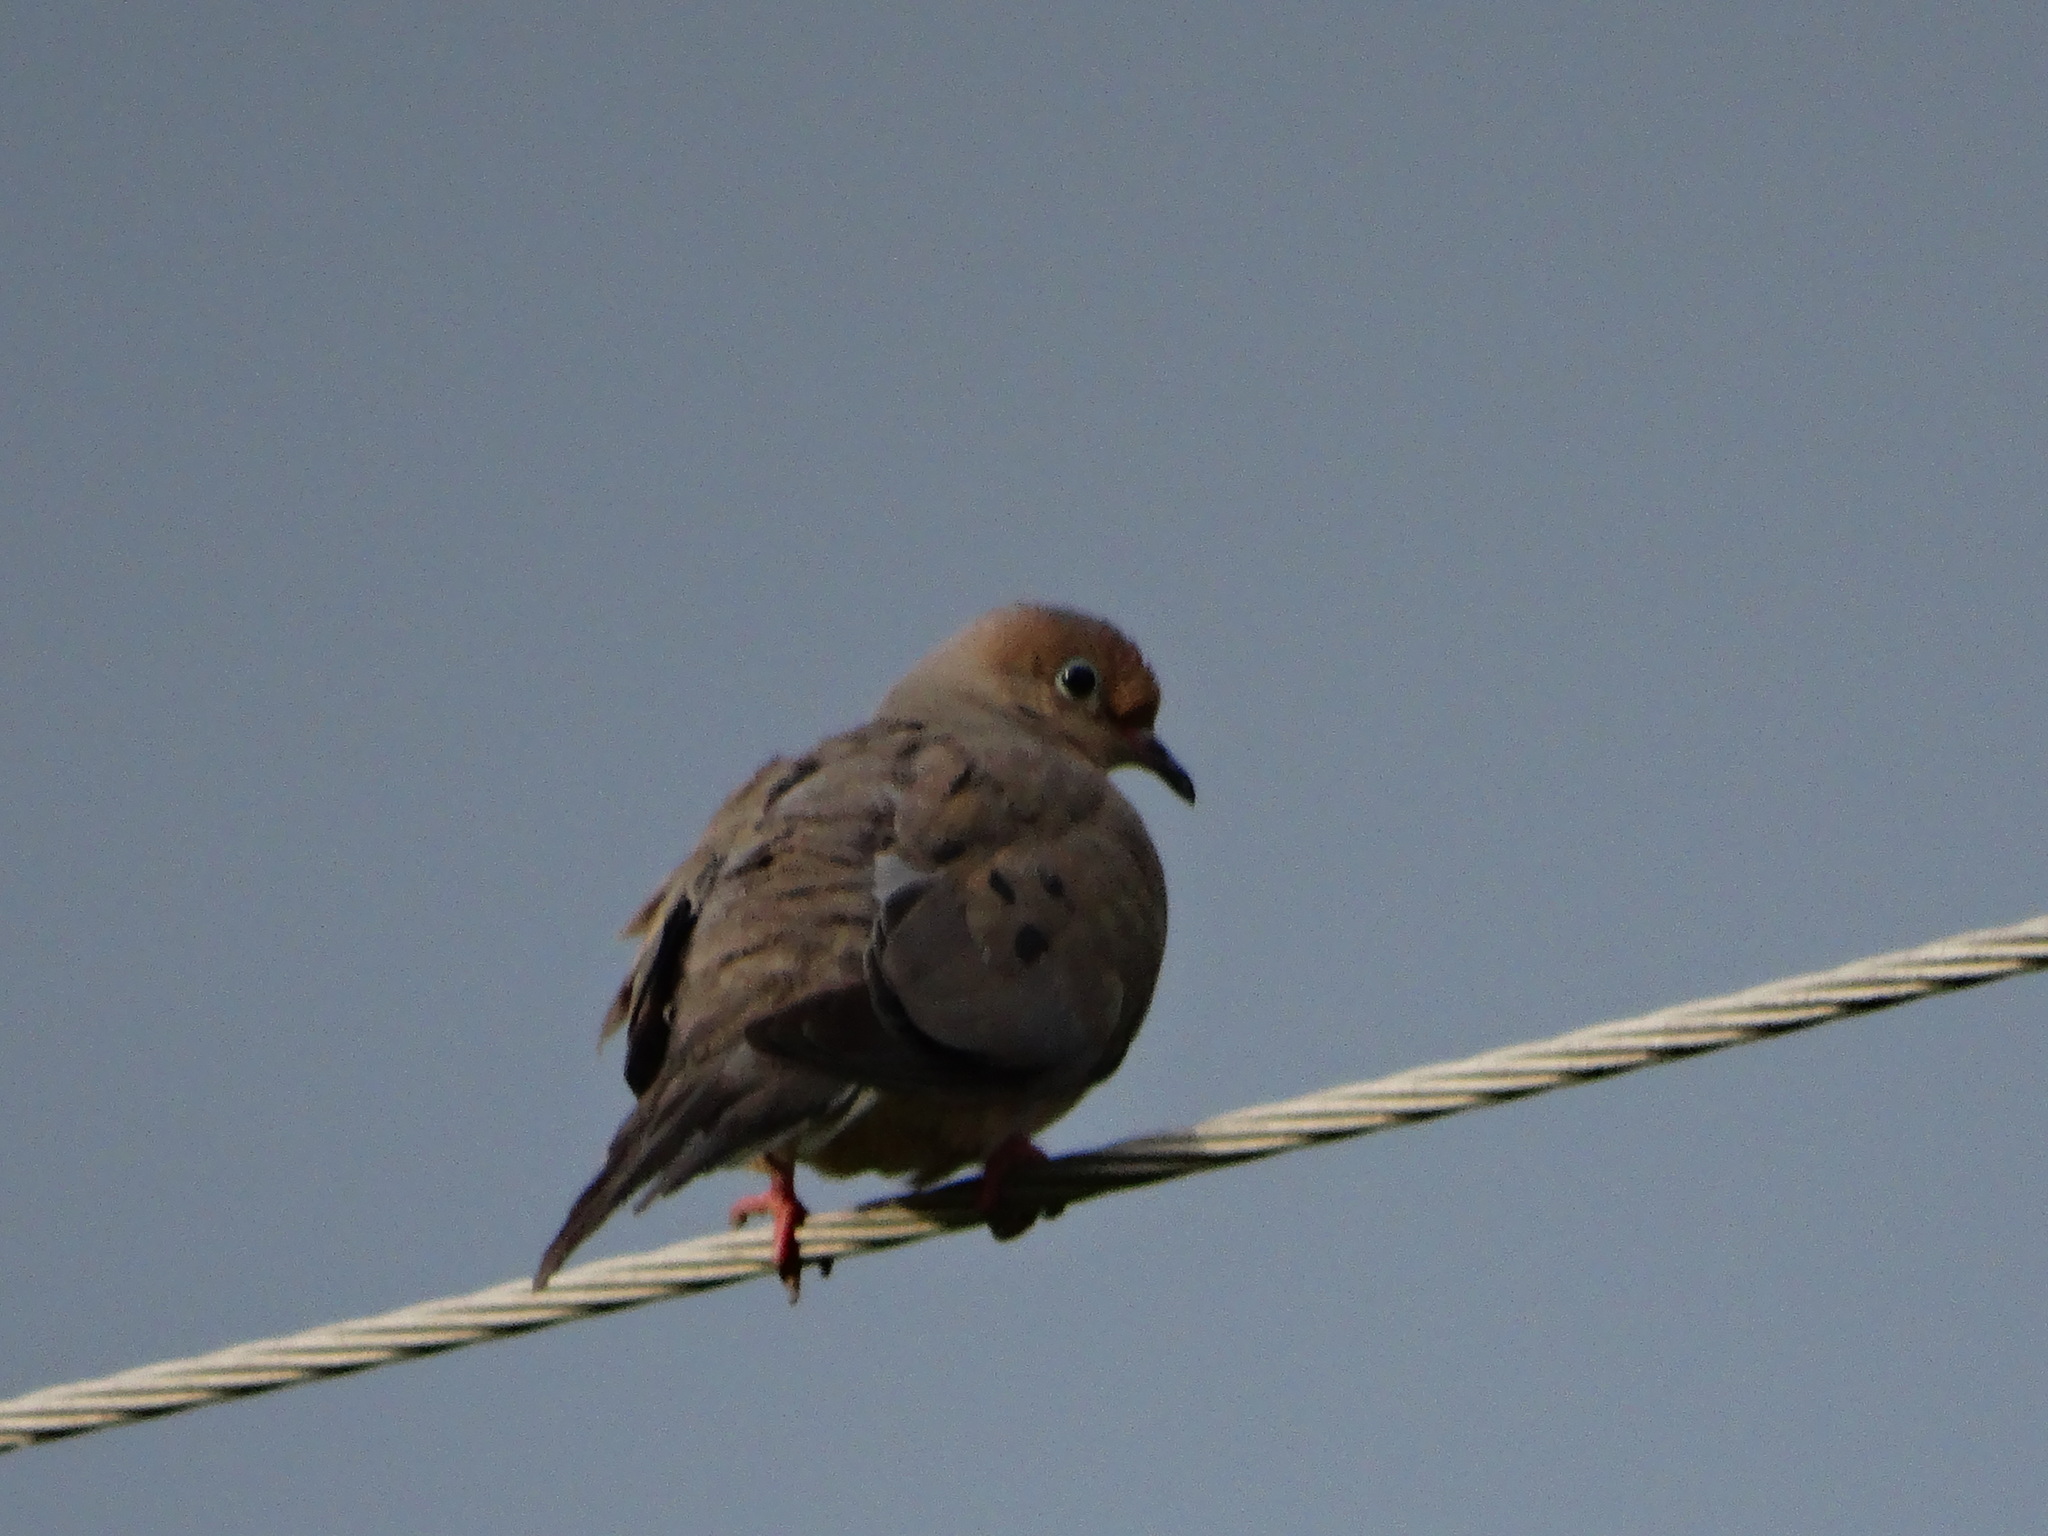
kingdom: Animalia
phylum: Chordata
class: Aves
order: Columbiformes
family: Columbidae
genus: Zenaida
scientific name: Zenaida macroura
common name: Mourning dove
